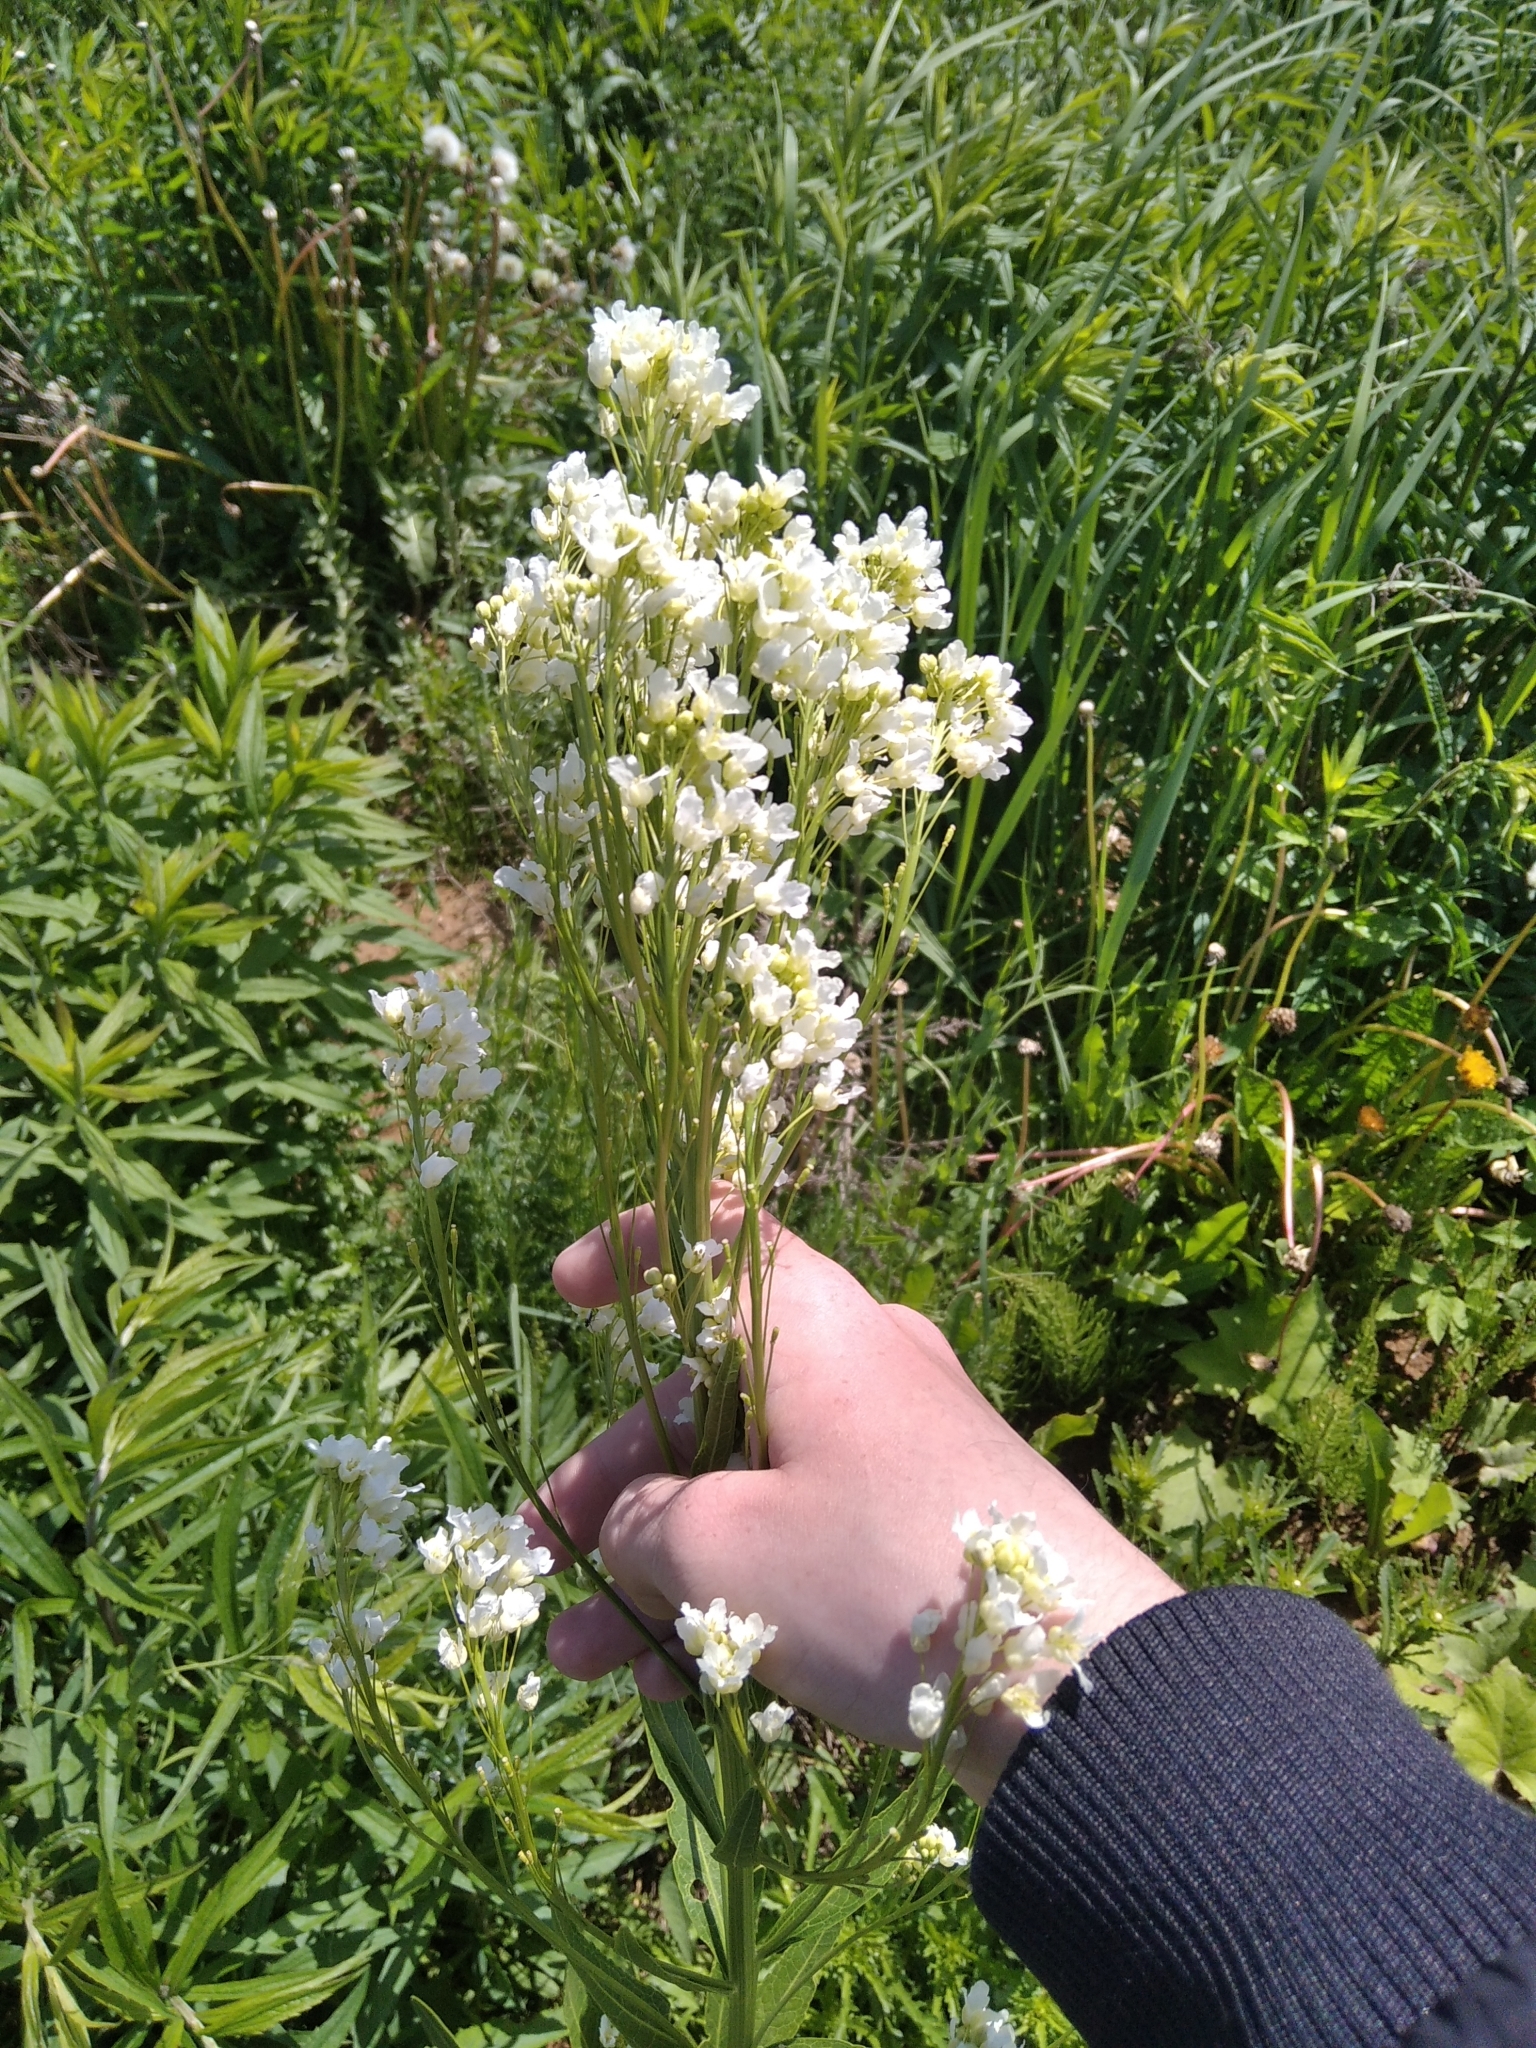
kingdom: Plantae
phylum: Tracheophyta
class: Magnoliopsida
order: Brassicales
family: Brassicaceae
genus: Armoracia
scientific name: Armoracia rusticana
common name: Horseradish
